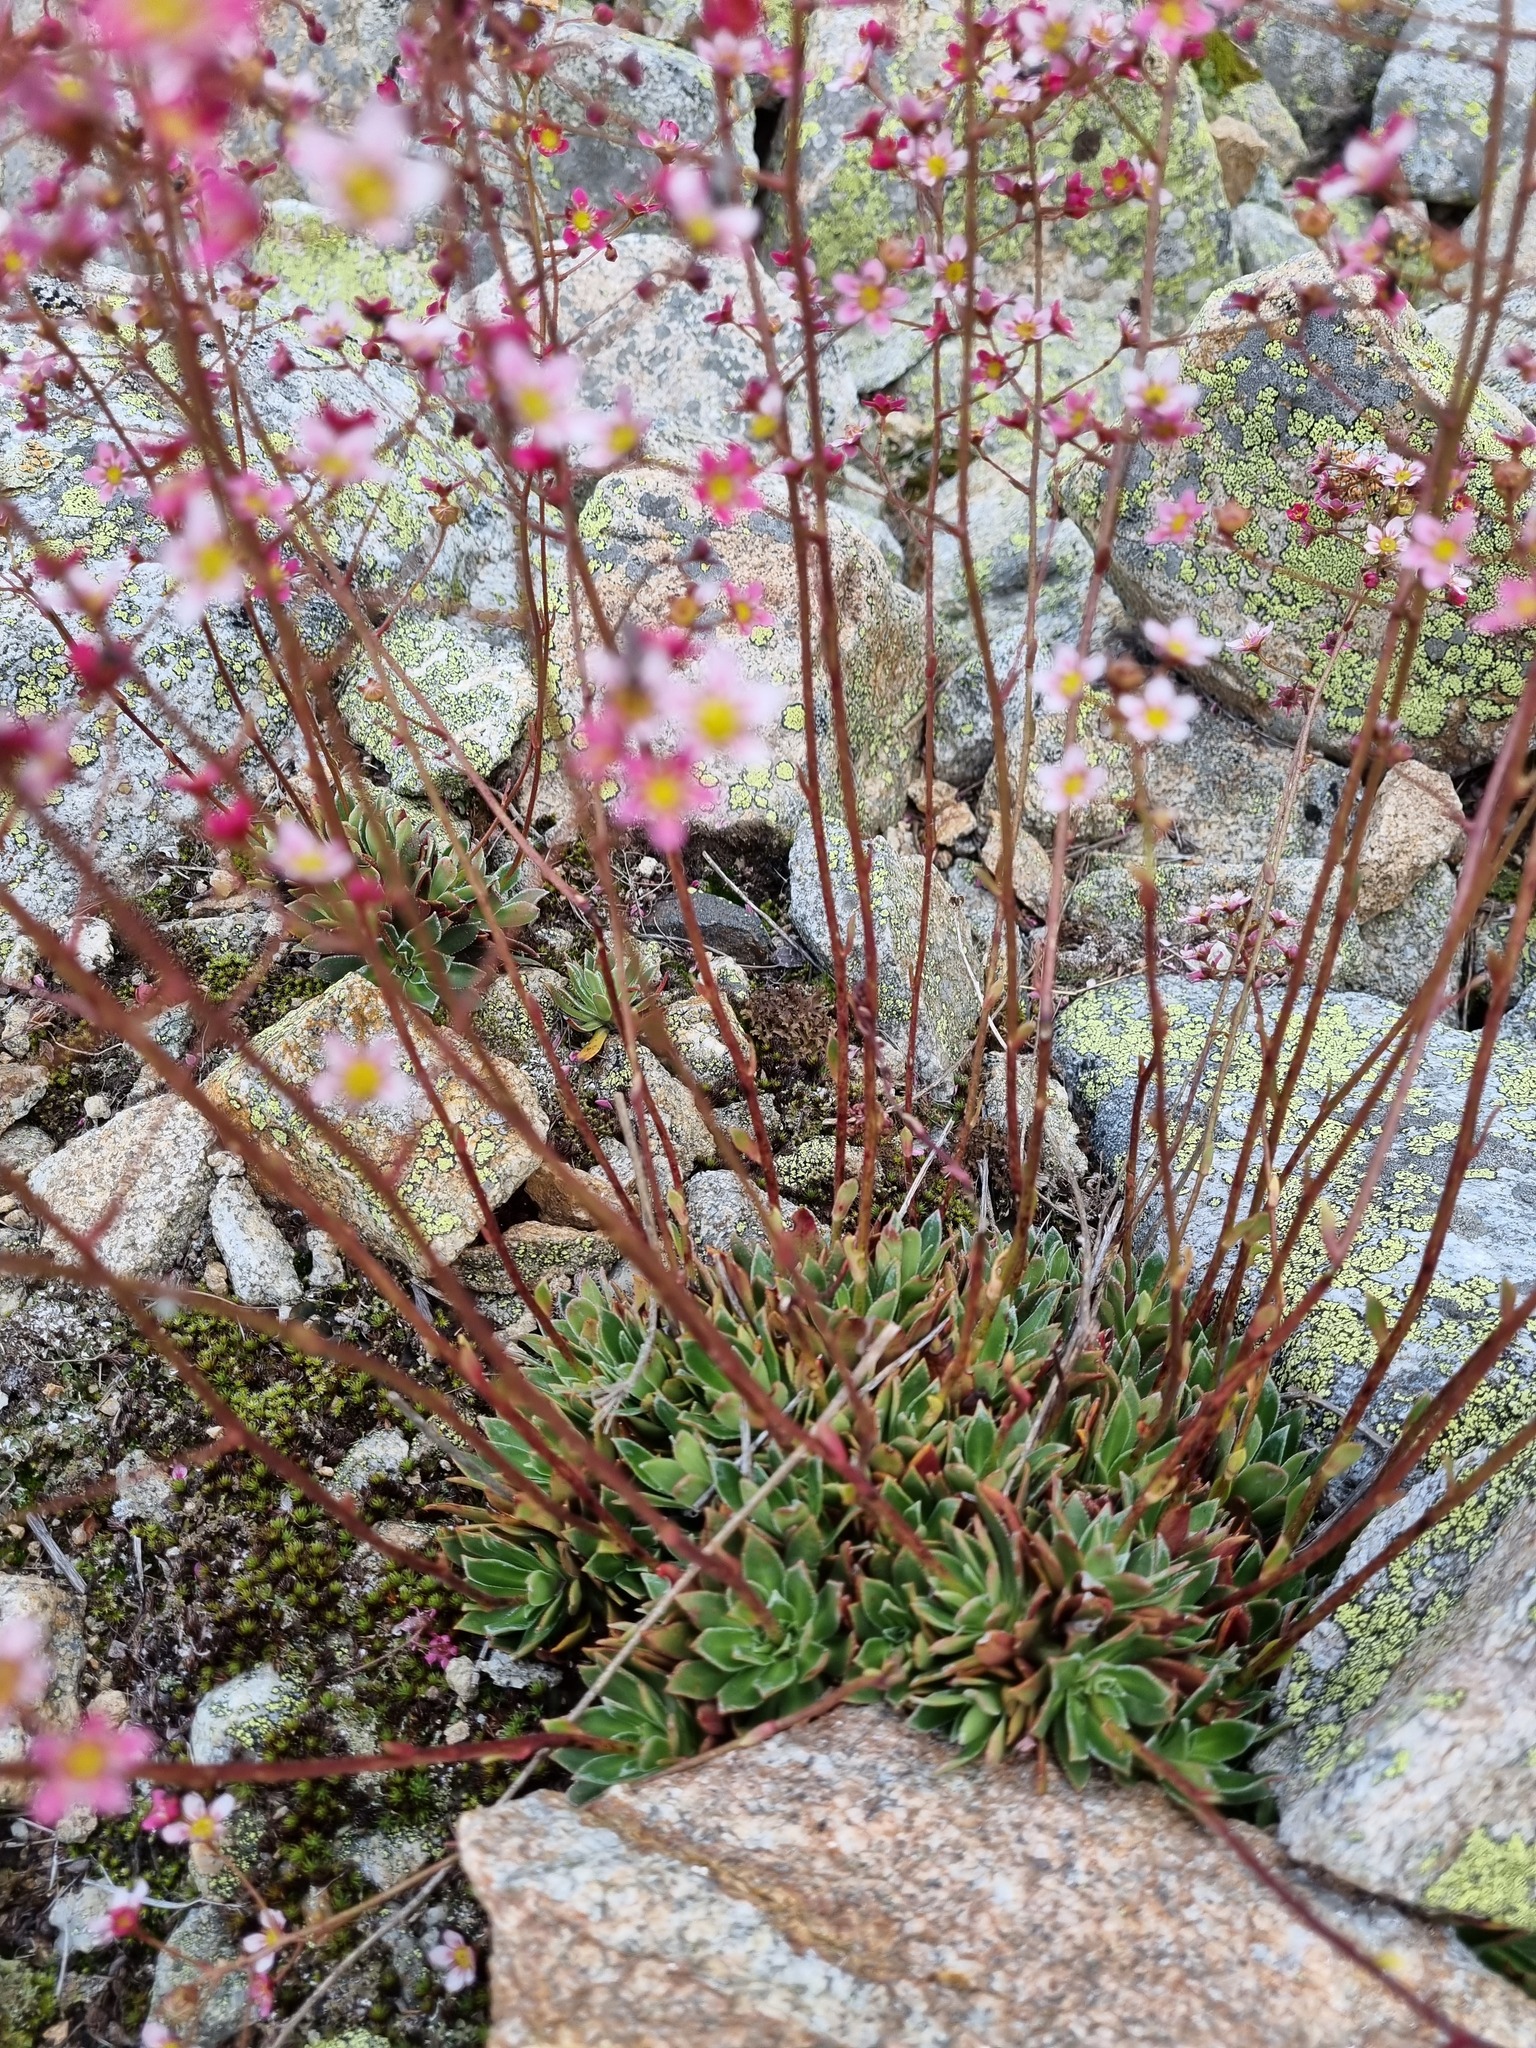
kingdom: Plantae
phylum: Tracheophyta
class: Magnoliopsida
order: Saxifragales
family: Saxifragaceae
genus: Saxifraga
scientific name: Saxifraga kolenatiana
